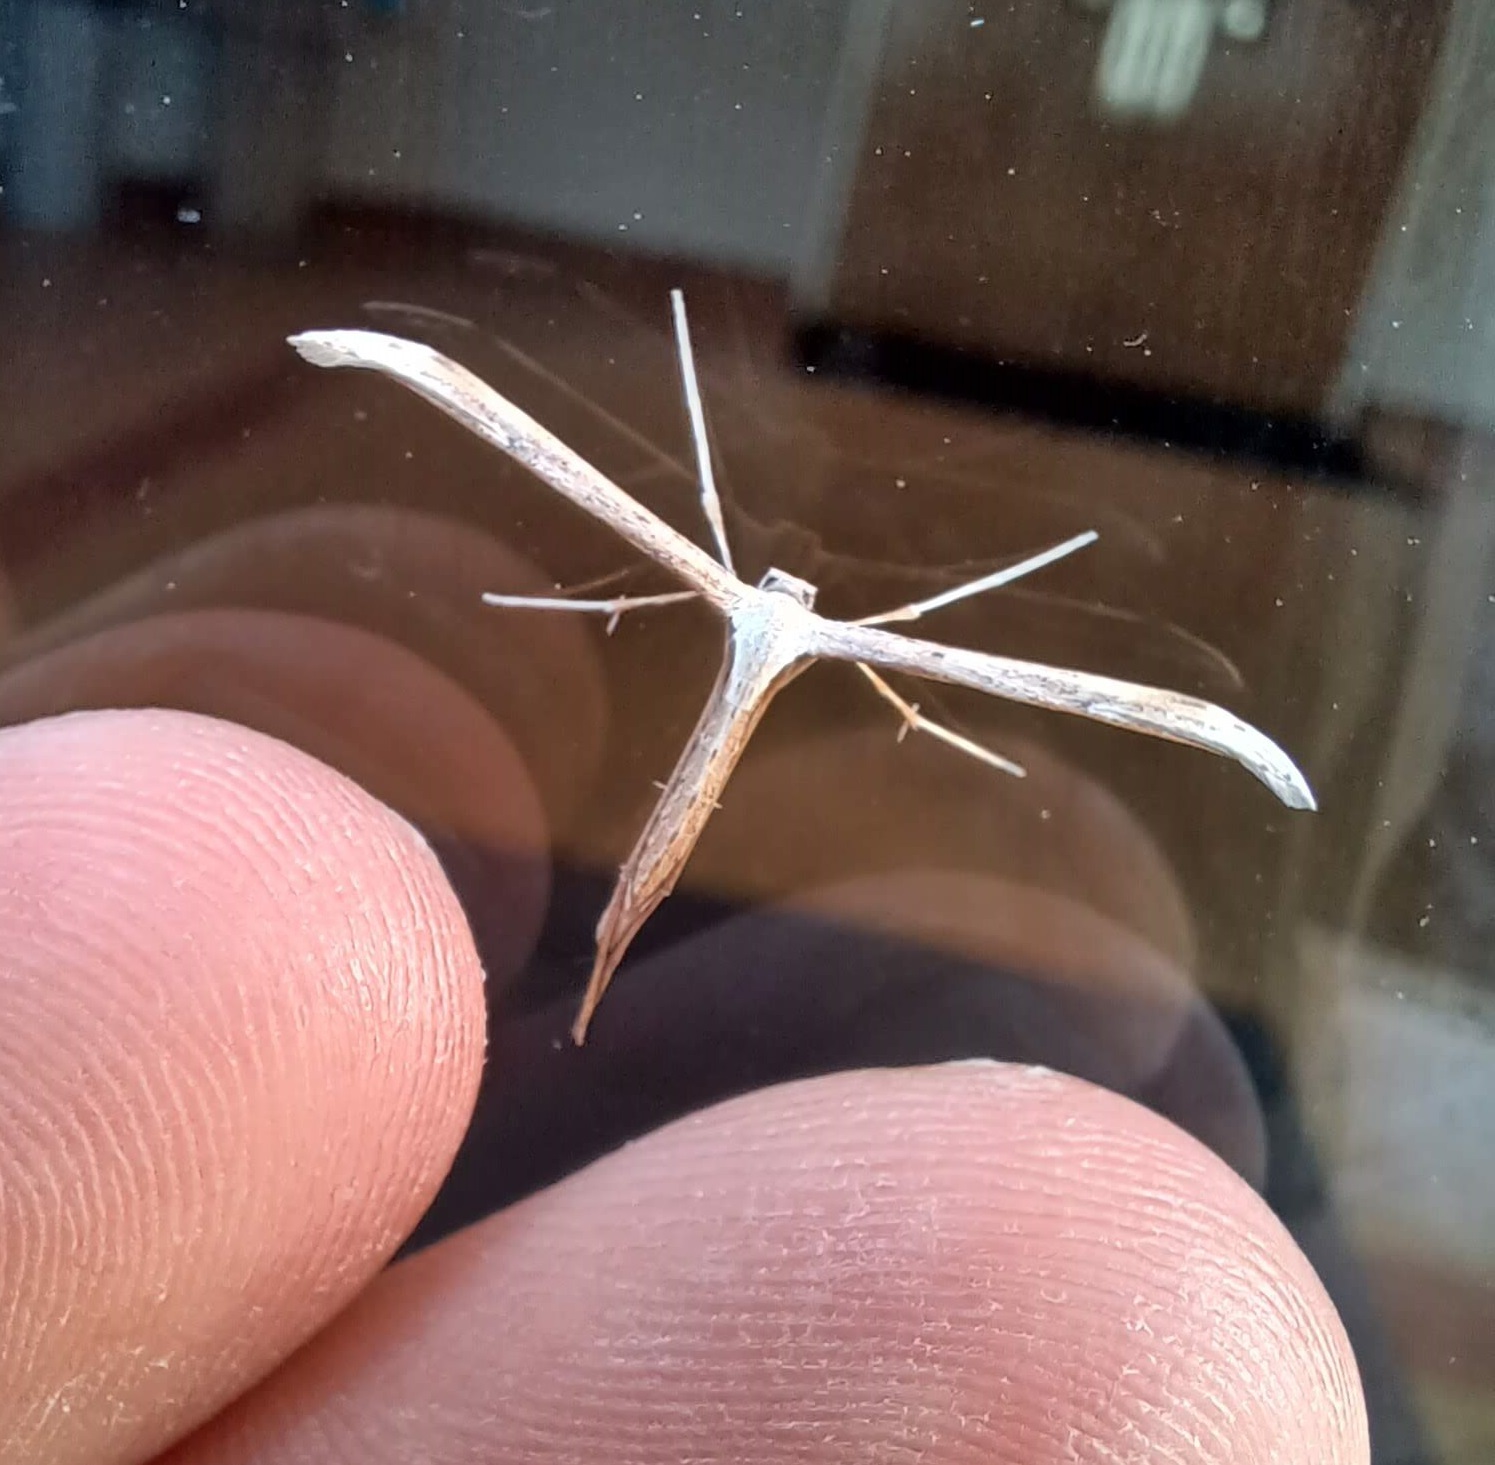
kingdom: Animalia
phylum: Arthropoda
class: Insecta
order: Lepidoptera
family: Pterophoridae
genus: Emmelina
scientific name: Emmelina monodactyla
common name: Common plume
